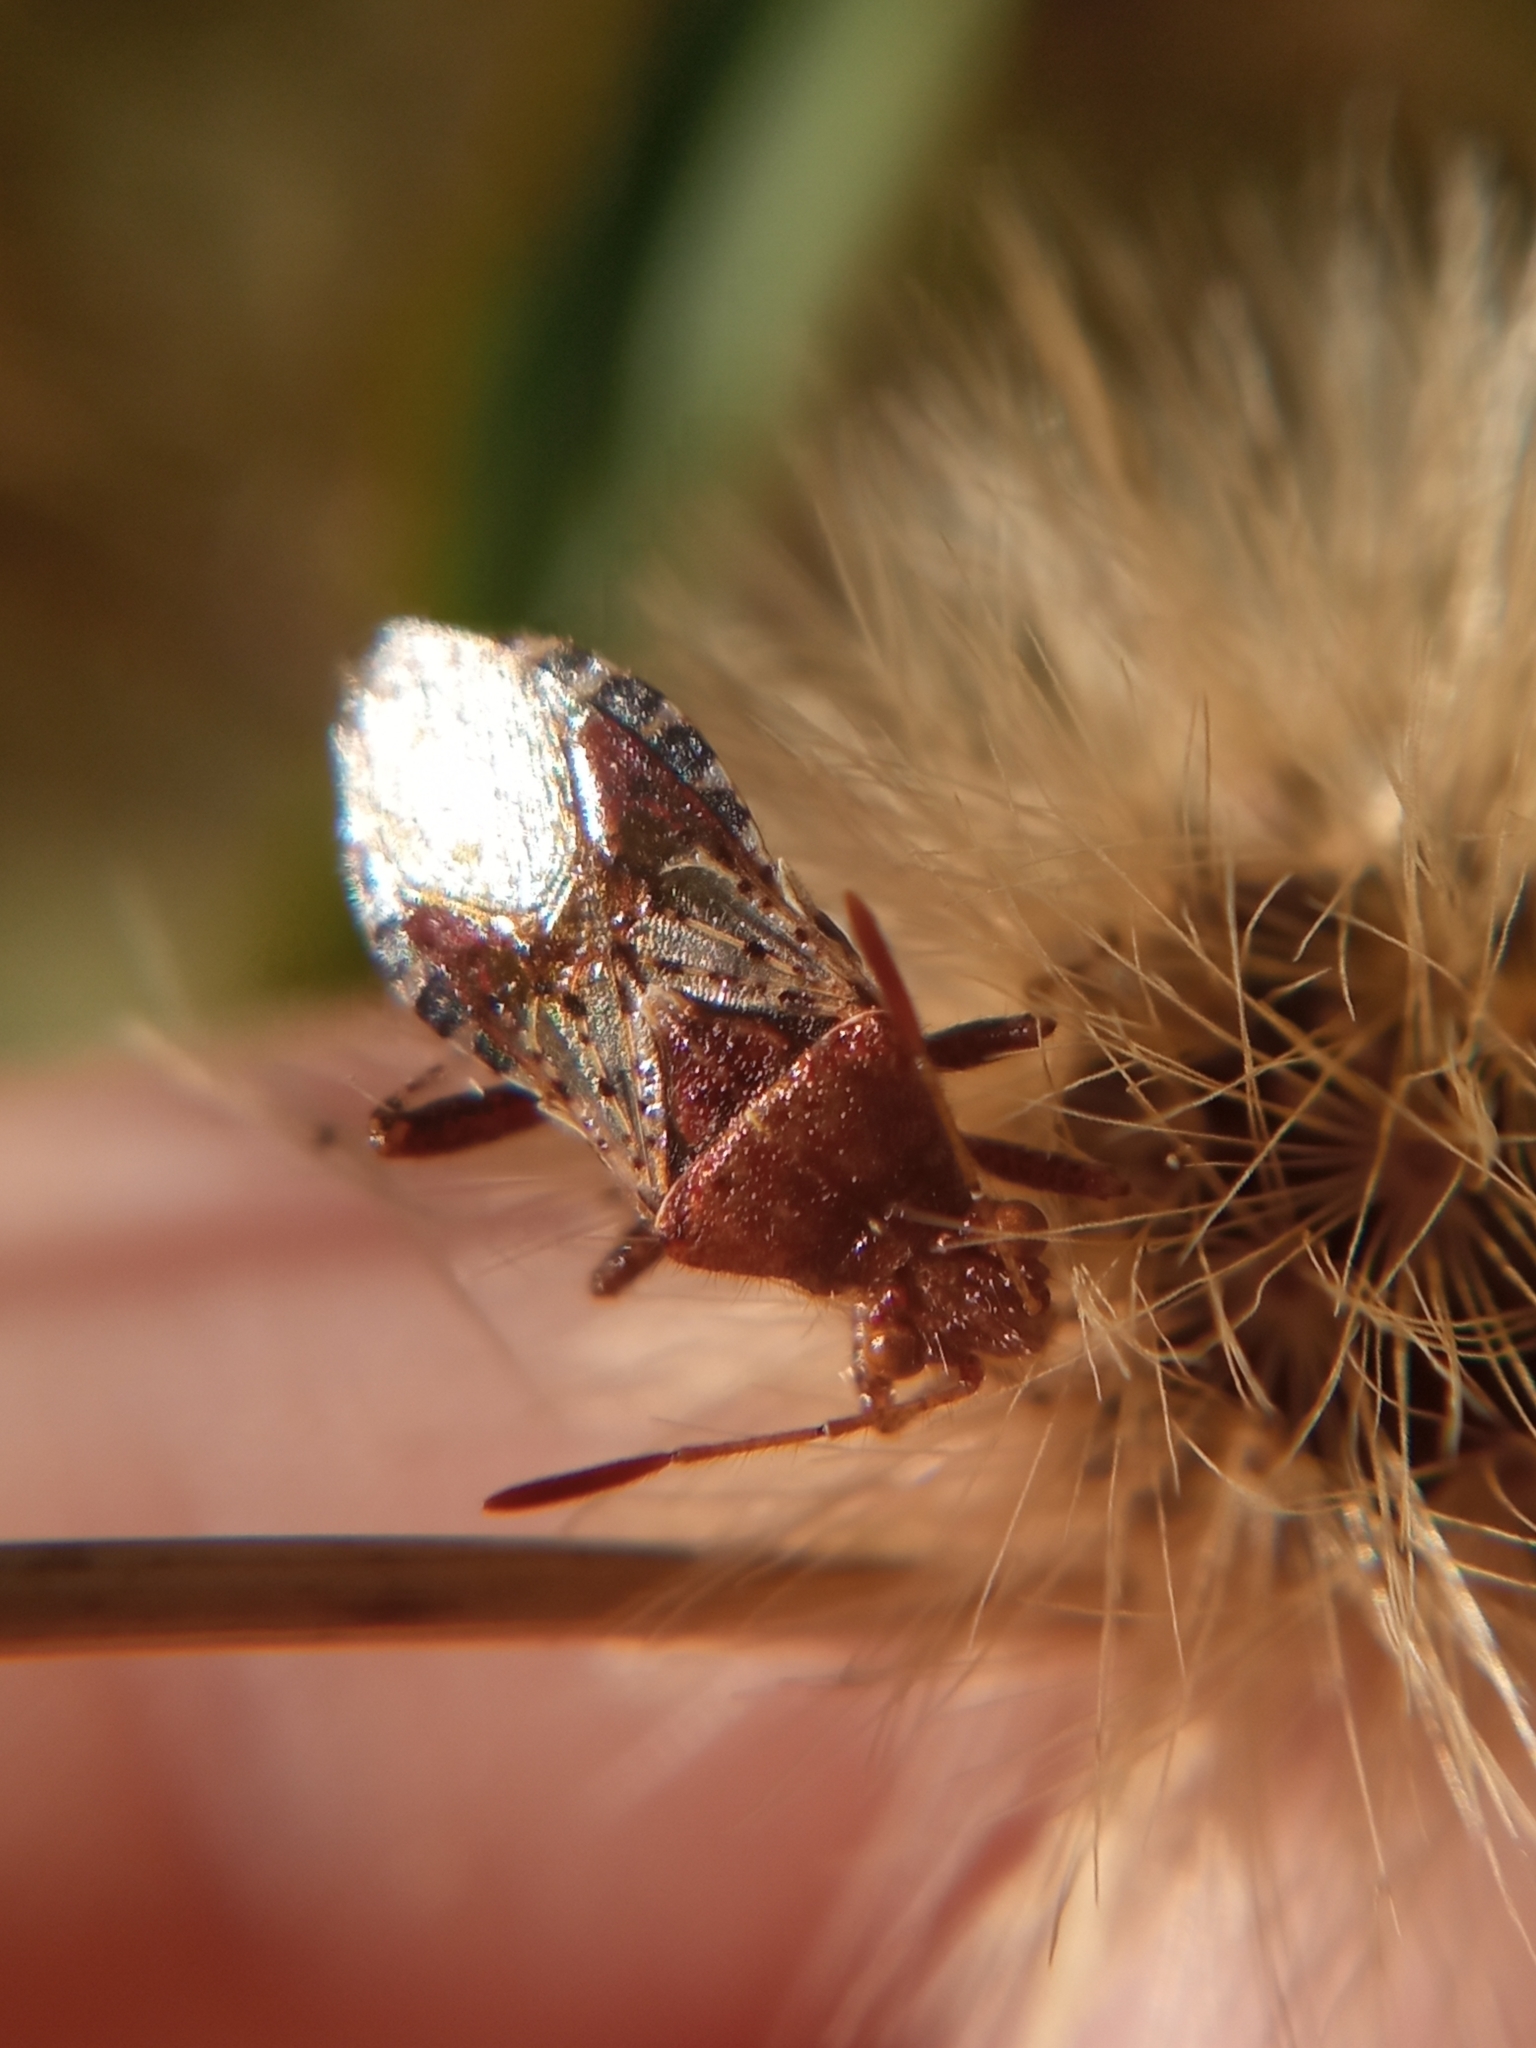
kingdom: Animalia
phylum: Arthropoda
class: Insecta
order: Hemiptera
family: Rhopalidae
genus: Rhopalus
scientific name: Rhopalus subrufus
